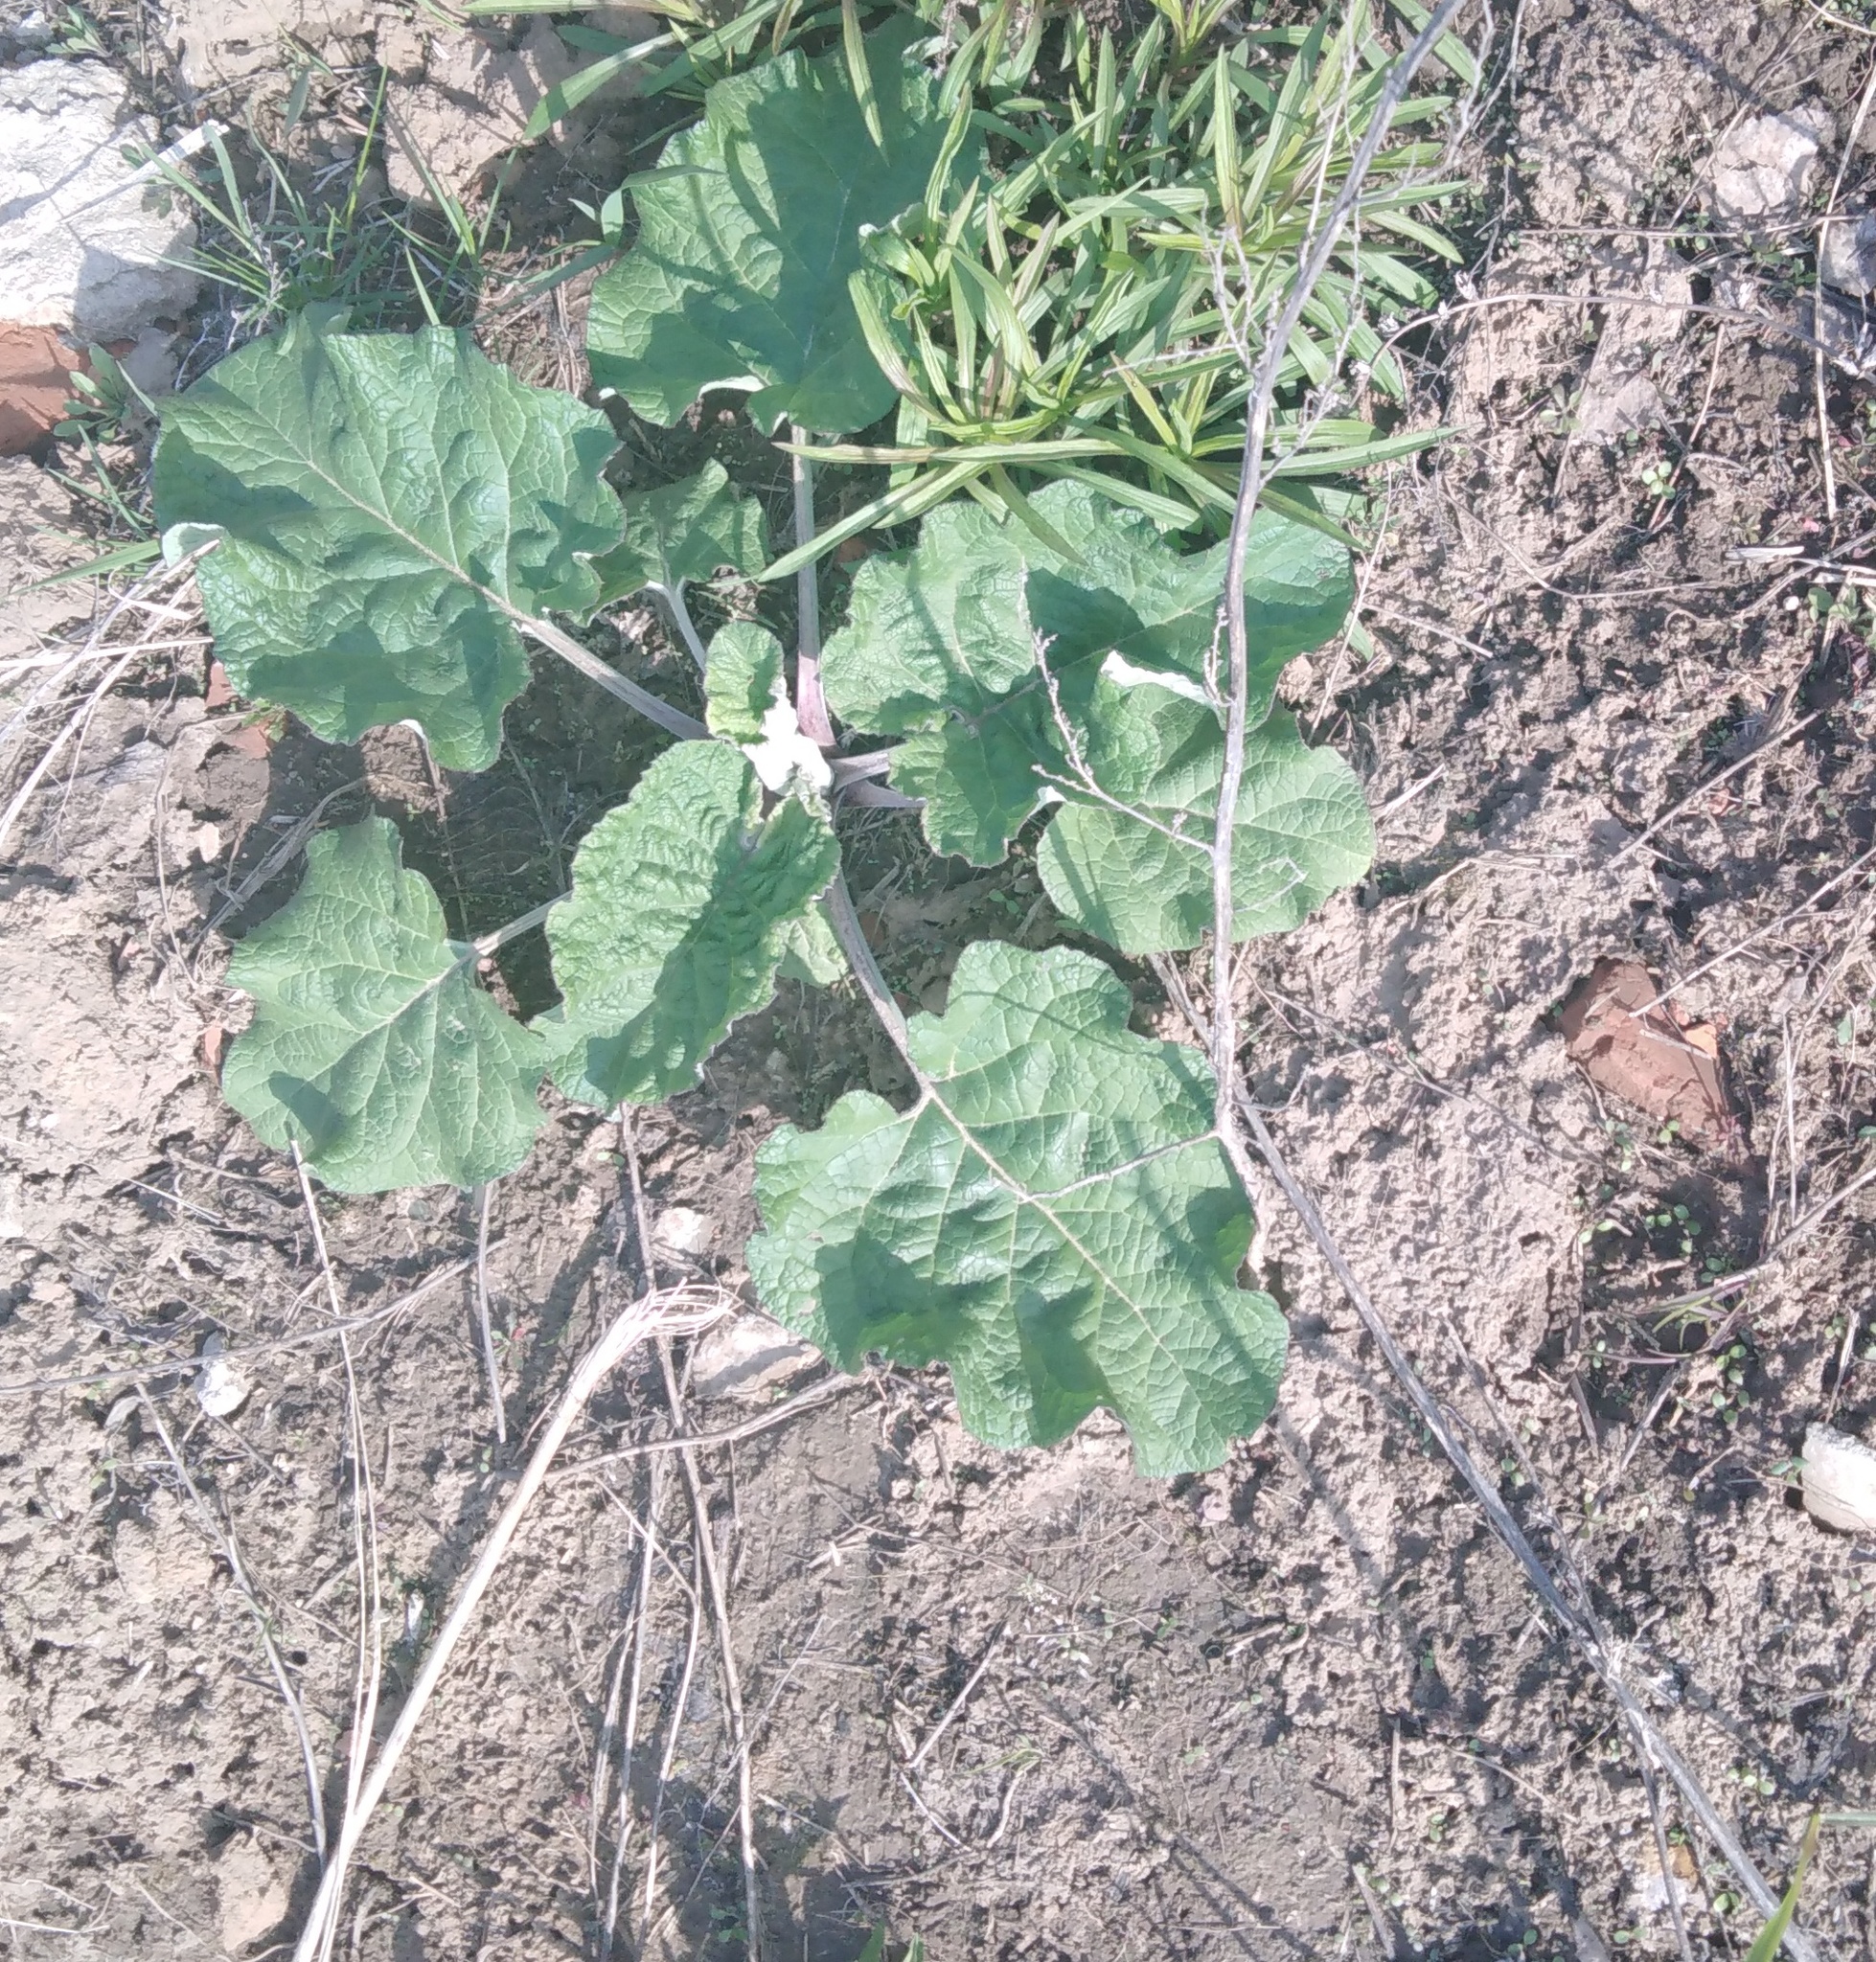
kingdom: Plantae
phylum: Tracheophyta
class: Magnoliopsida
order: Asterales
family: Asteraceae
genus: Arctium
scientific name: Arctium
